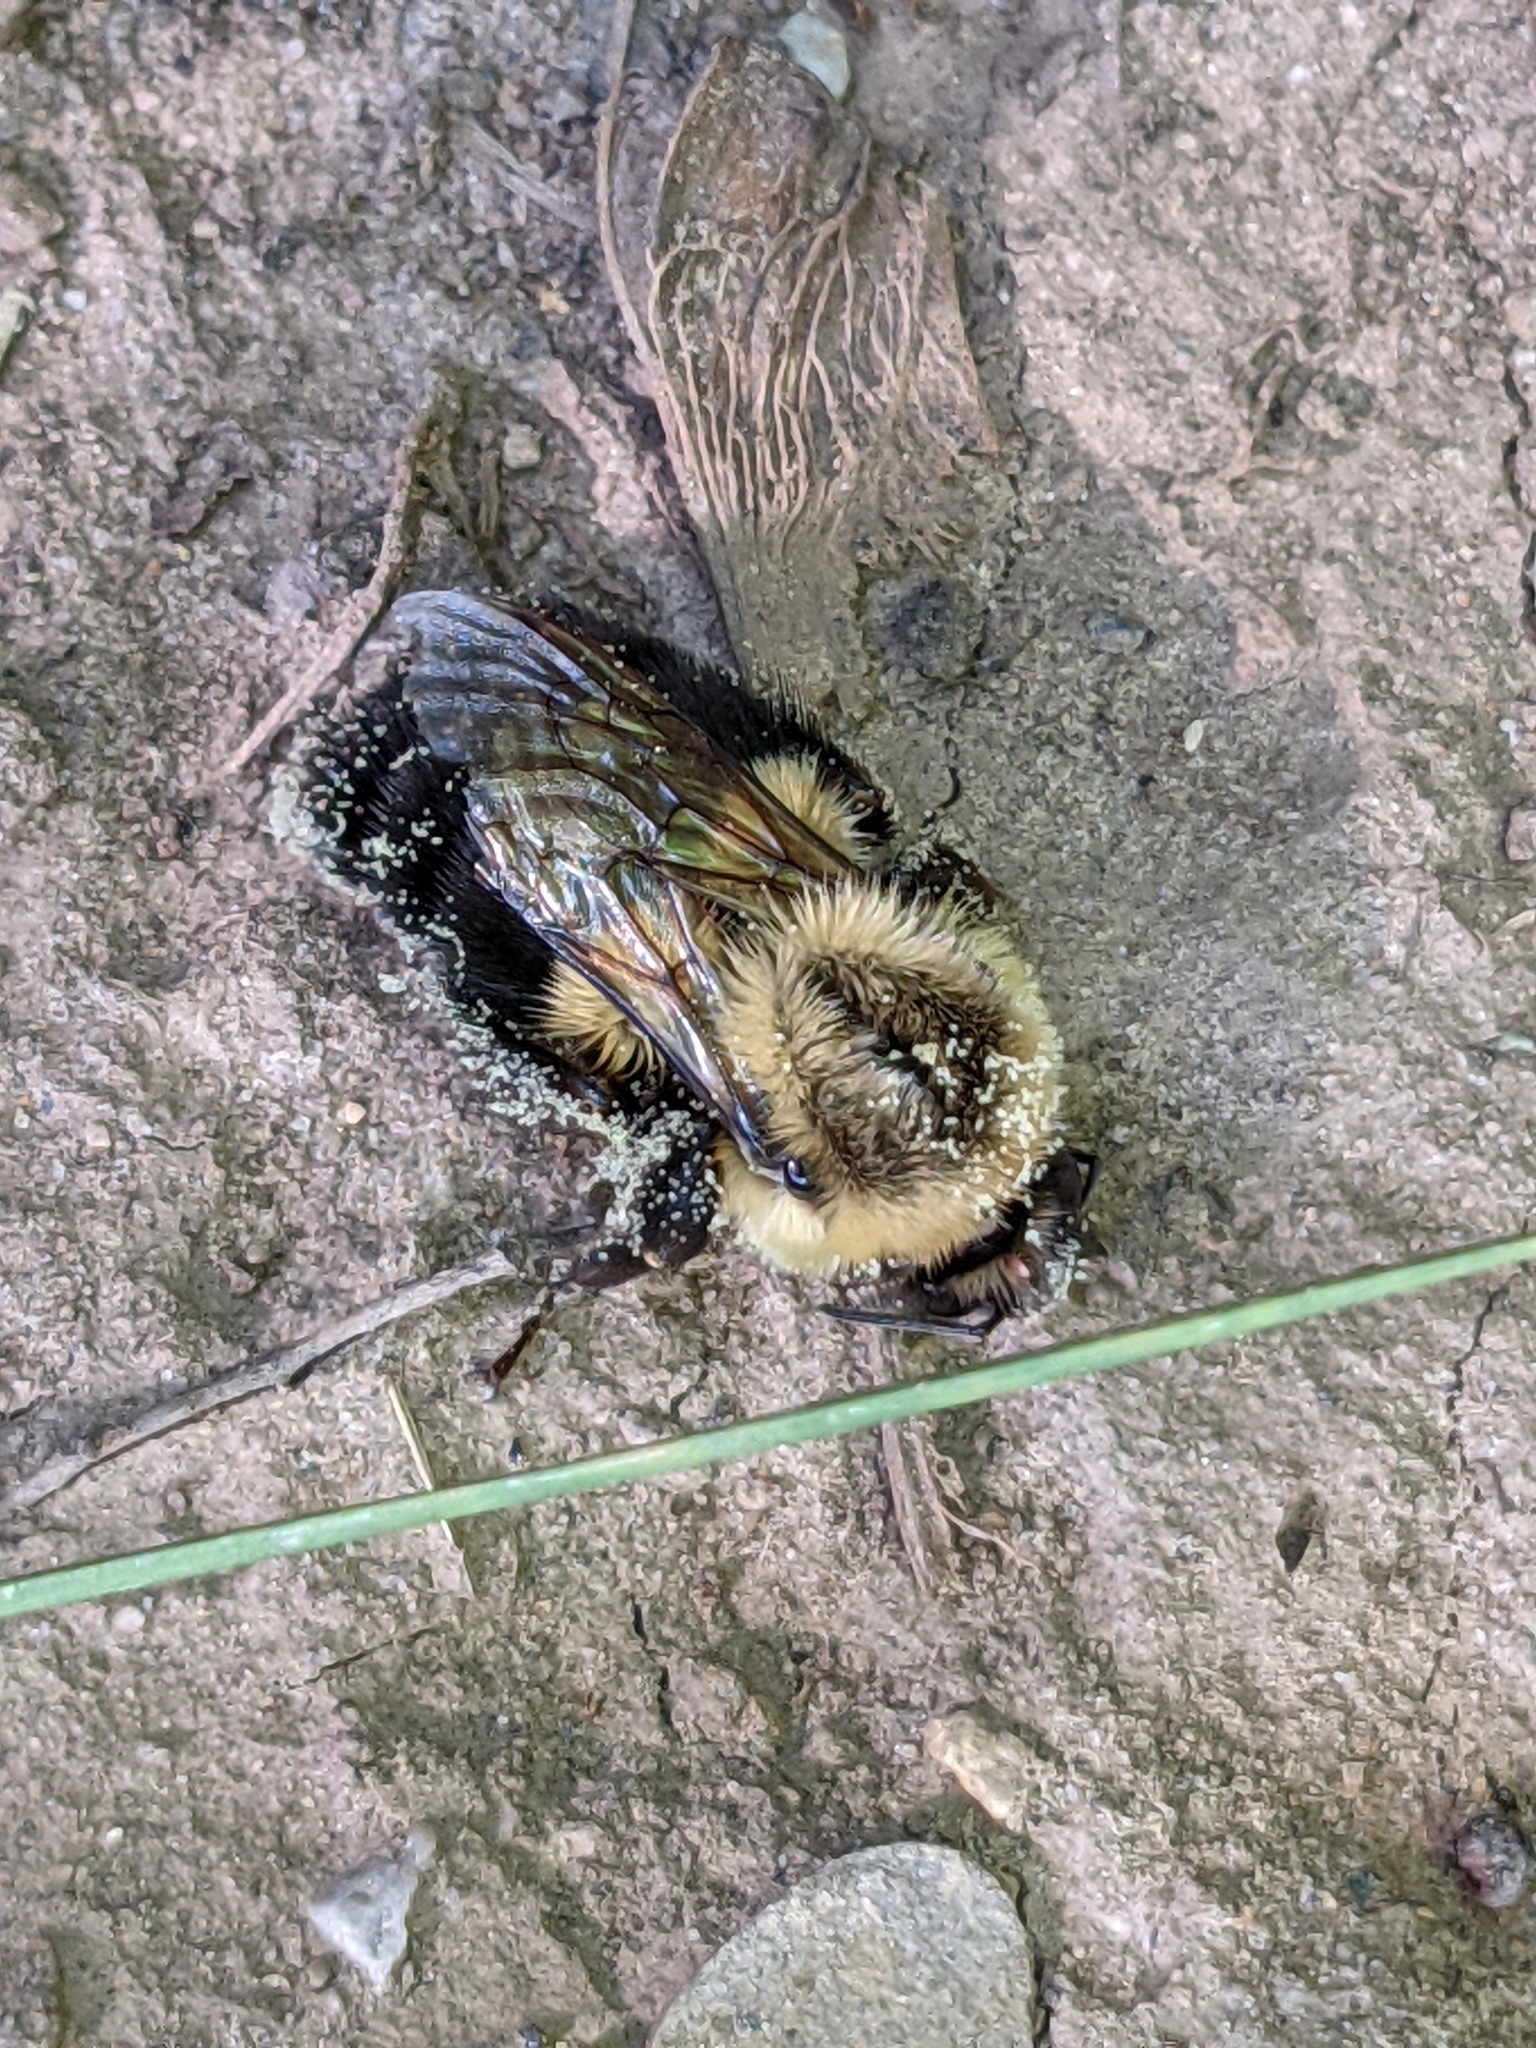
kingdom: Animalia
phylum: Arthropoda
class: Insecta
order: Hymenoptera
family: Apidae
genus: Bombus
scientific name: Bombus impatiens
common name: Common eastern bumble bee
